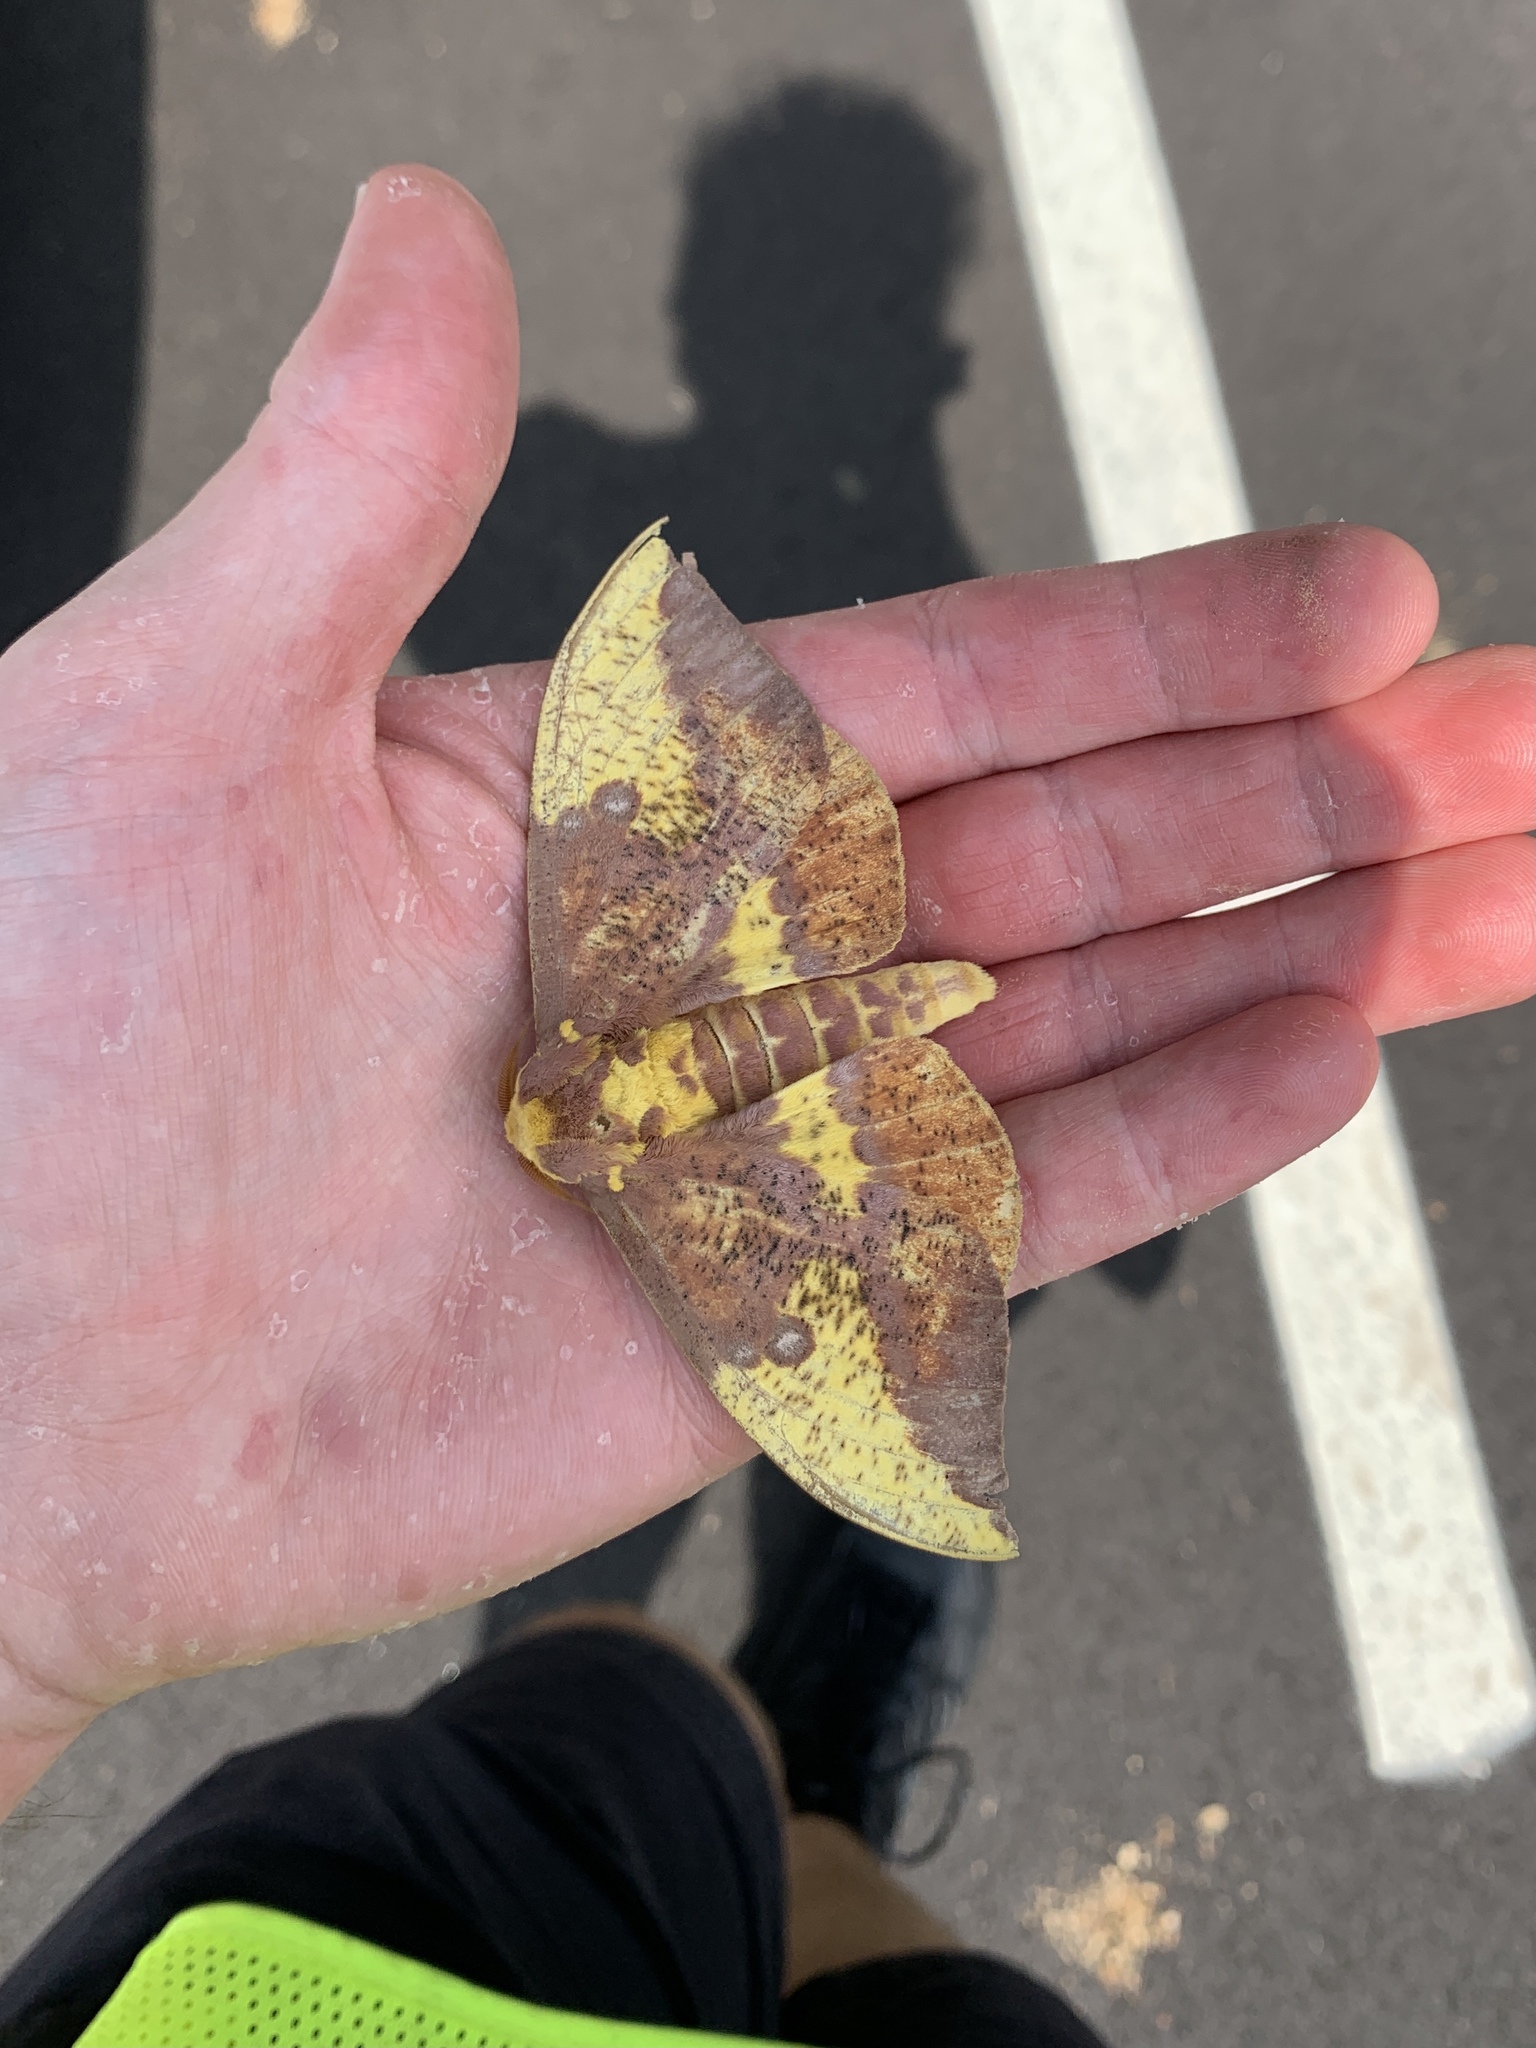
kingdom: Animalia
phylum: Arthropoda
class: Insecta
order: Lepidoptera
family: Saturniidae
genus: Eacles
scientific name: Eacles imperialis
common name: Imperial moth
